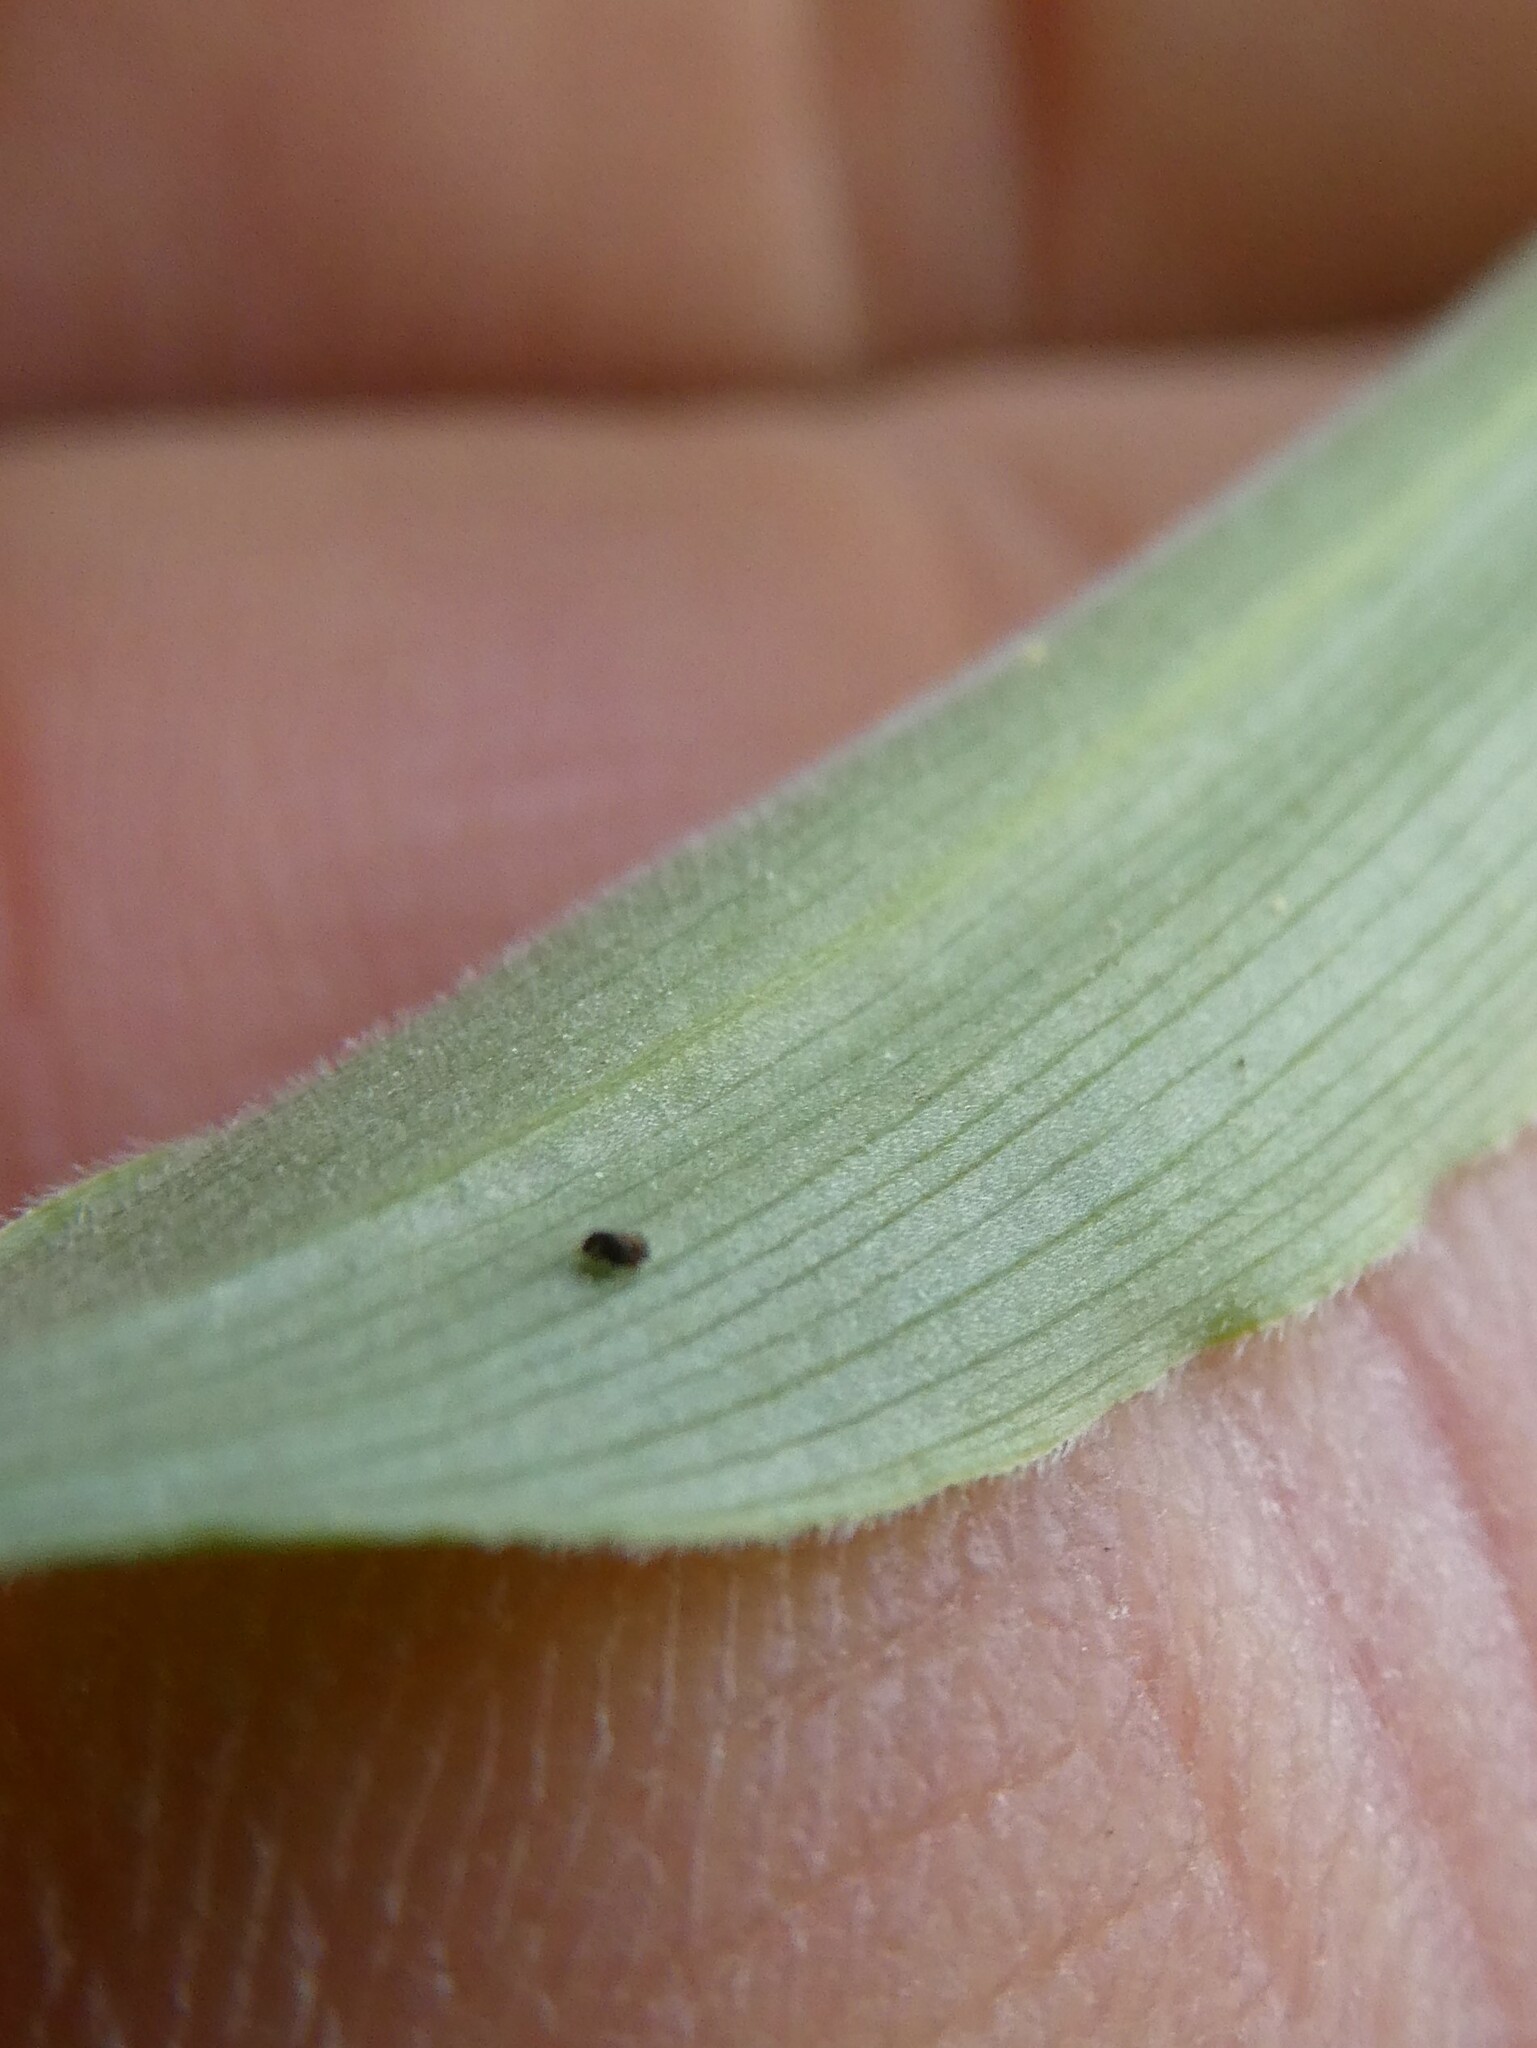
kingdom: Plantae
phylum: Tracheophyta
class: Liliopsida
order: Asparagales
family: Asparagaceae
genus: Maianthemum
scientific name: Maianthemum racemosum
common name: False spikenard
